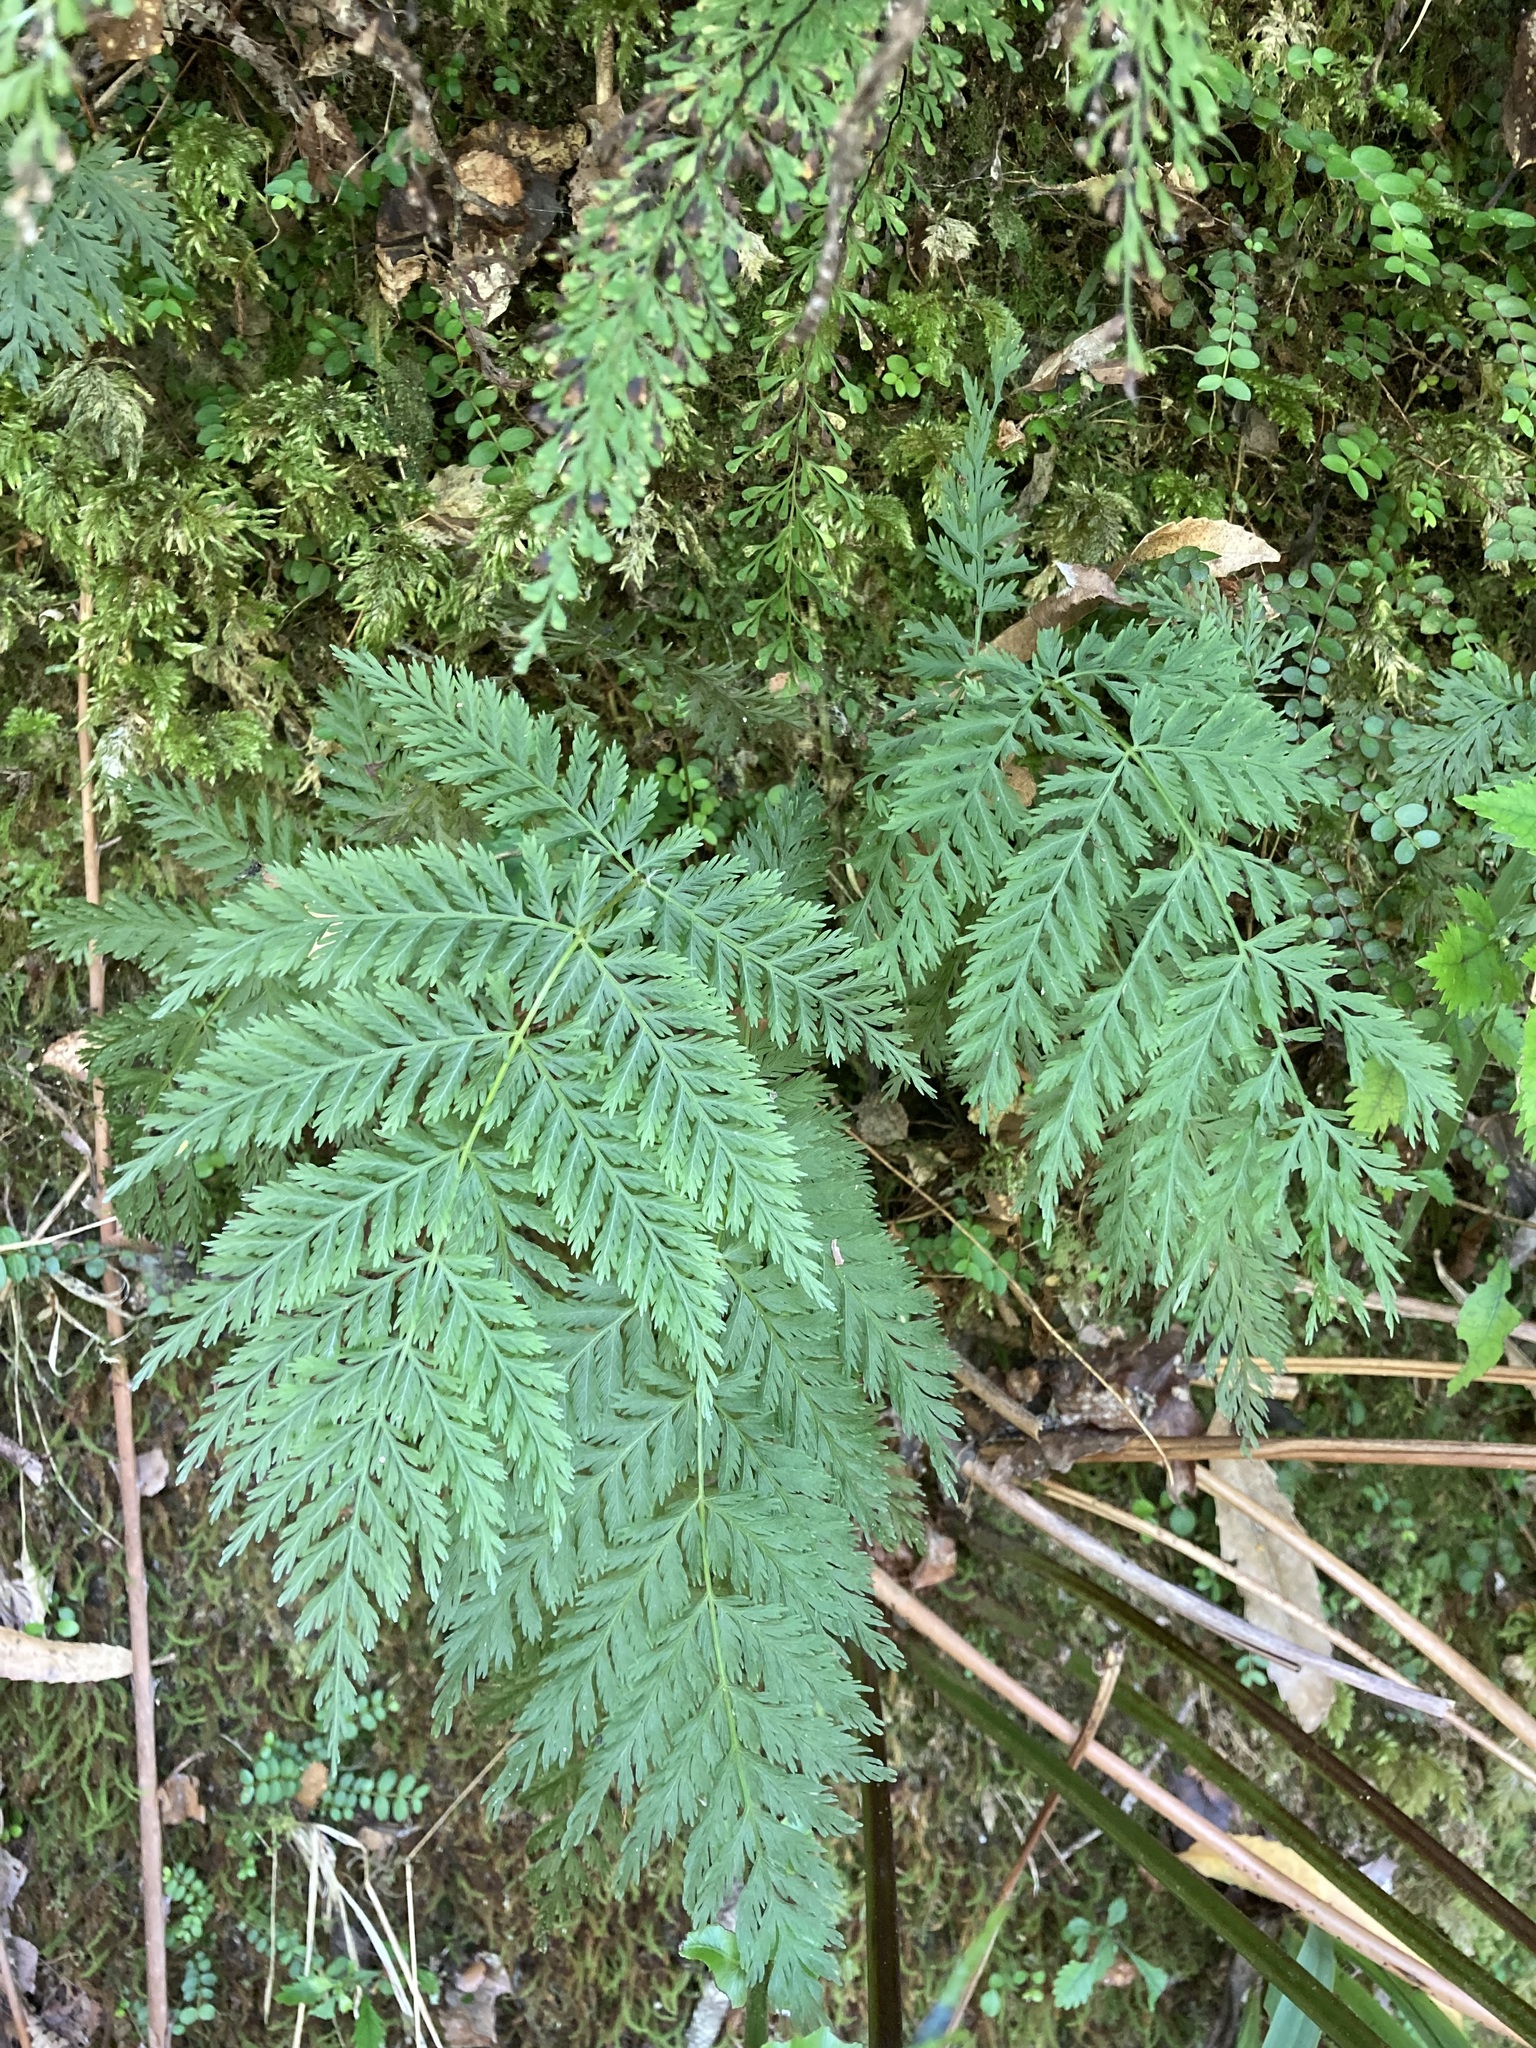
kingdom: Plantae
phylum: Tracheophyta
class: Polypodiopsida
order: Osmundales
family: Osmundaceae
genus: Leptopteris
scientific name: Leptopteris hymenophylloides
